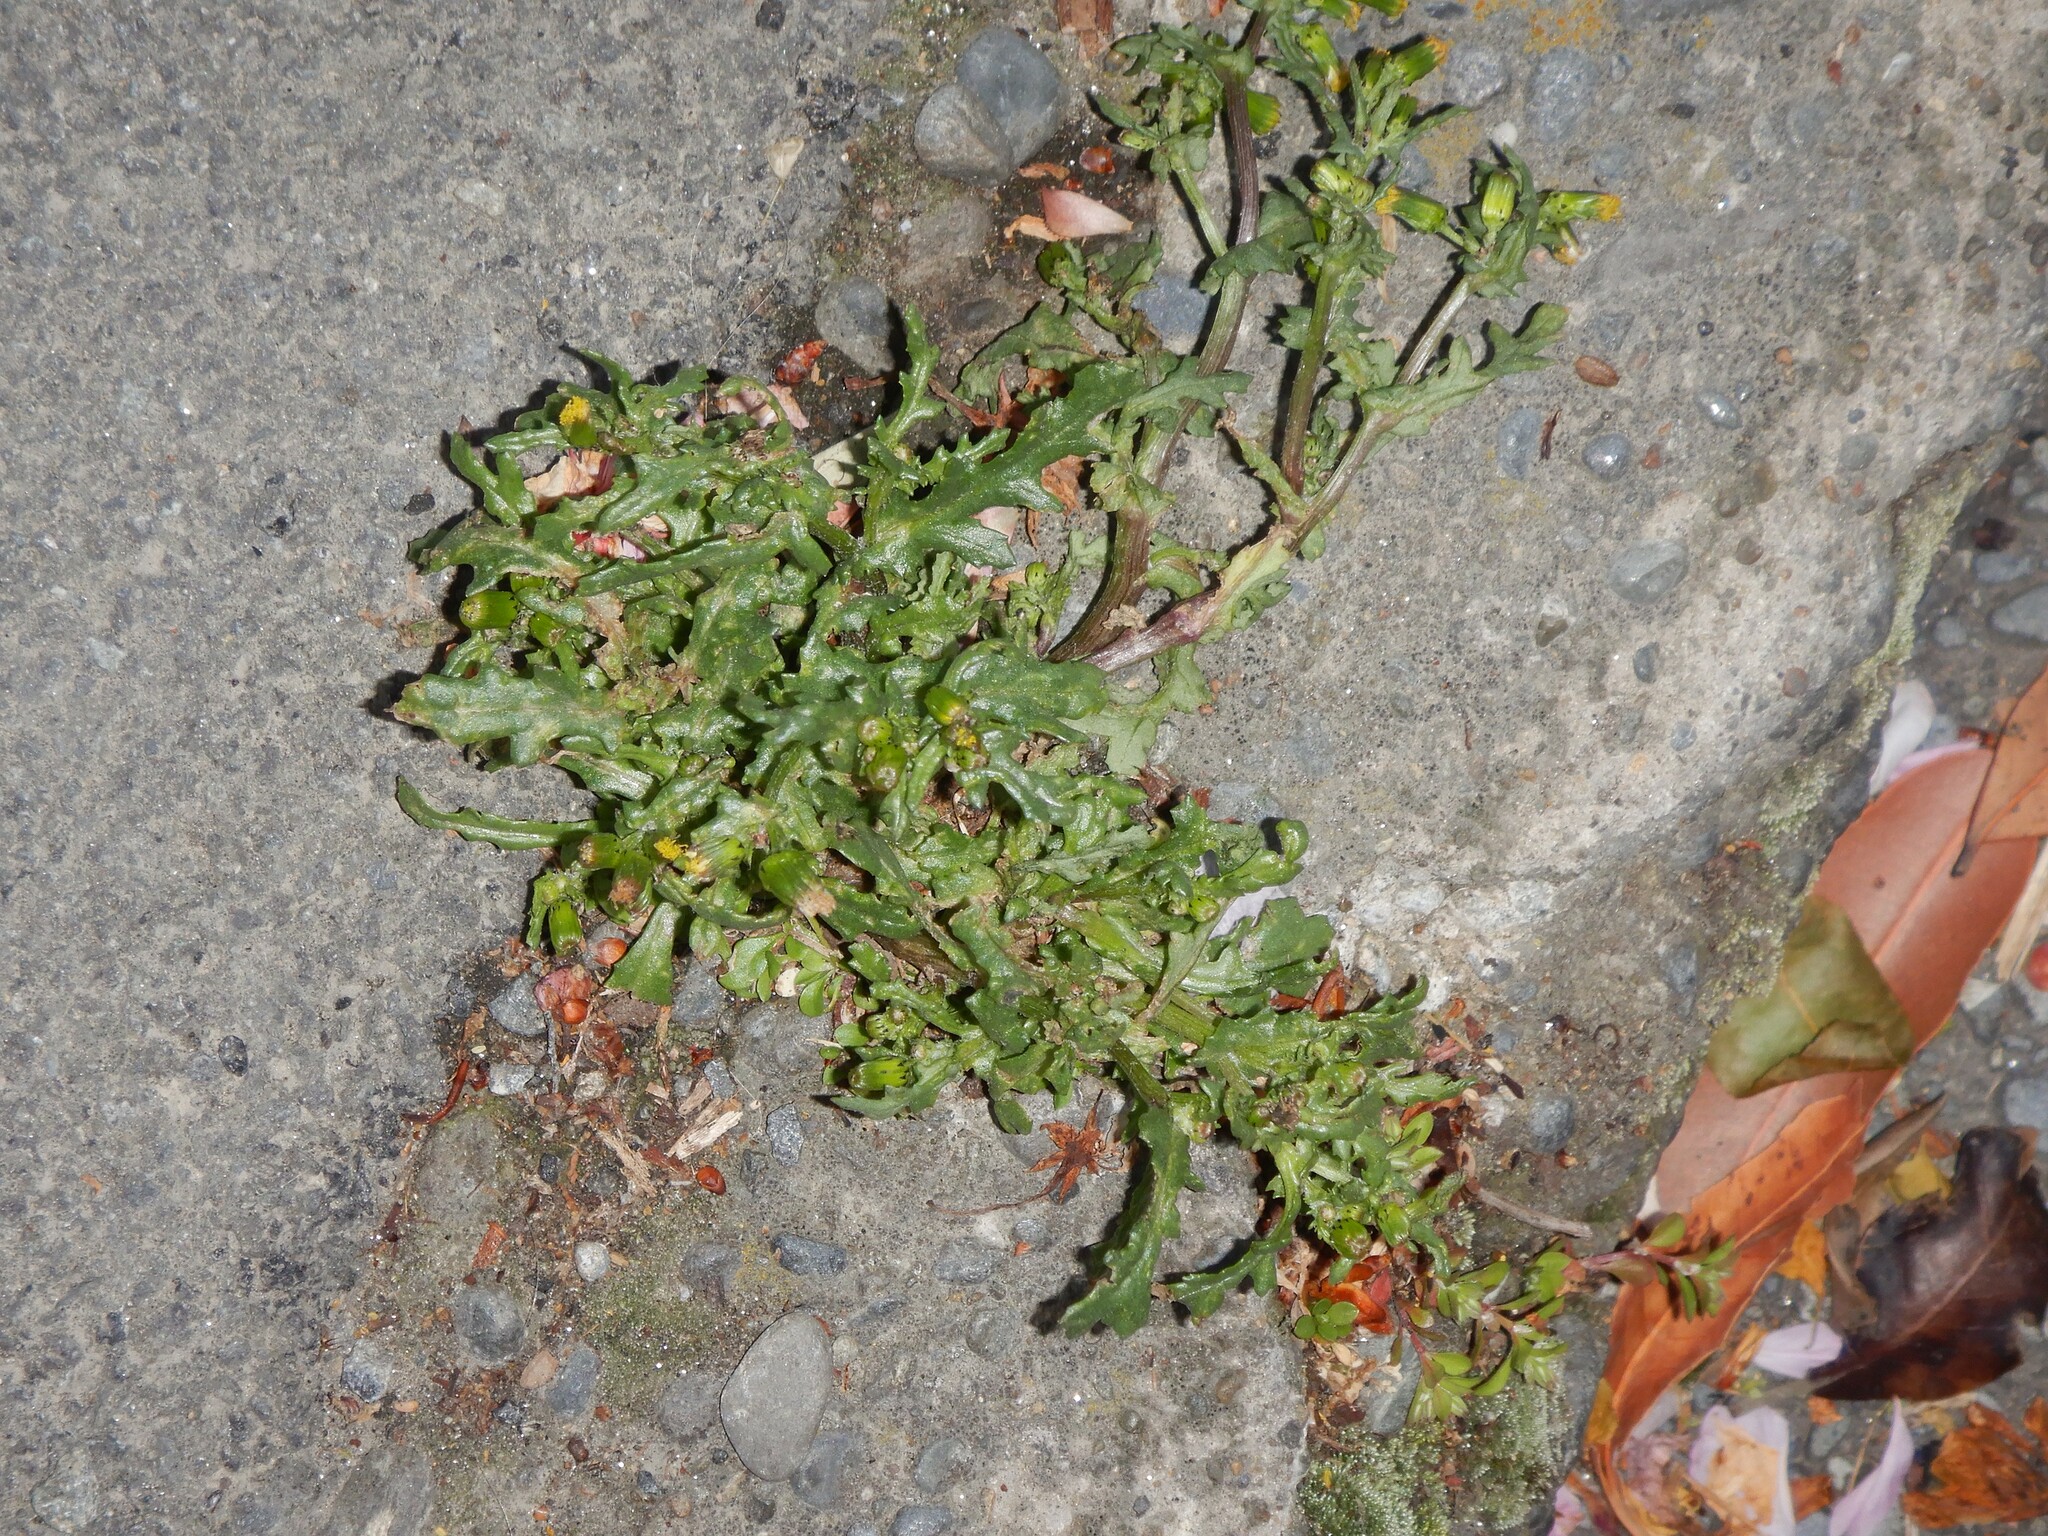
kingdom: Plantae
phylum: Tracheophyta
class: Magnoliopsida
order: Asterales
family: Asteraceae
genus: Senecio
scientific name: Senecio vulgaris
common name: Old-man-in-the-spring
